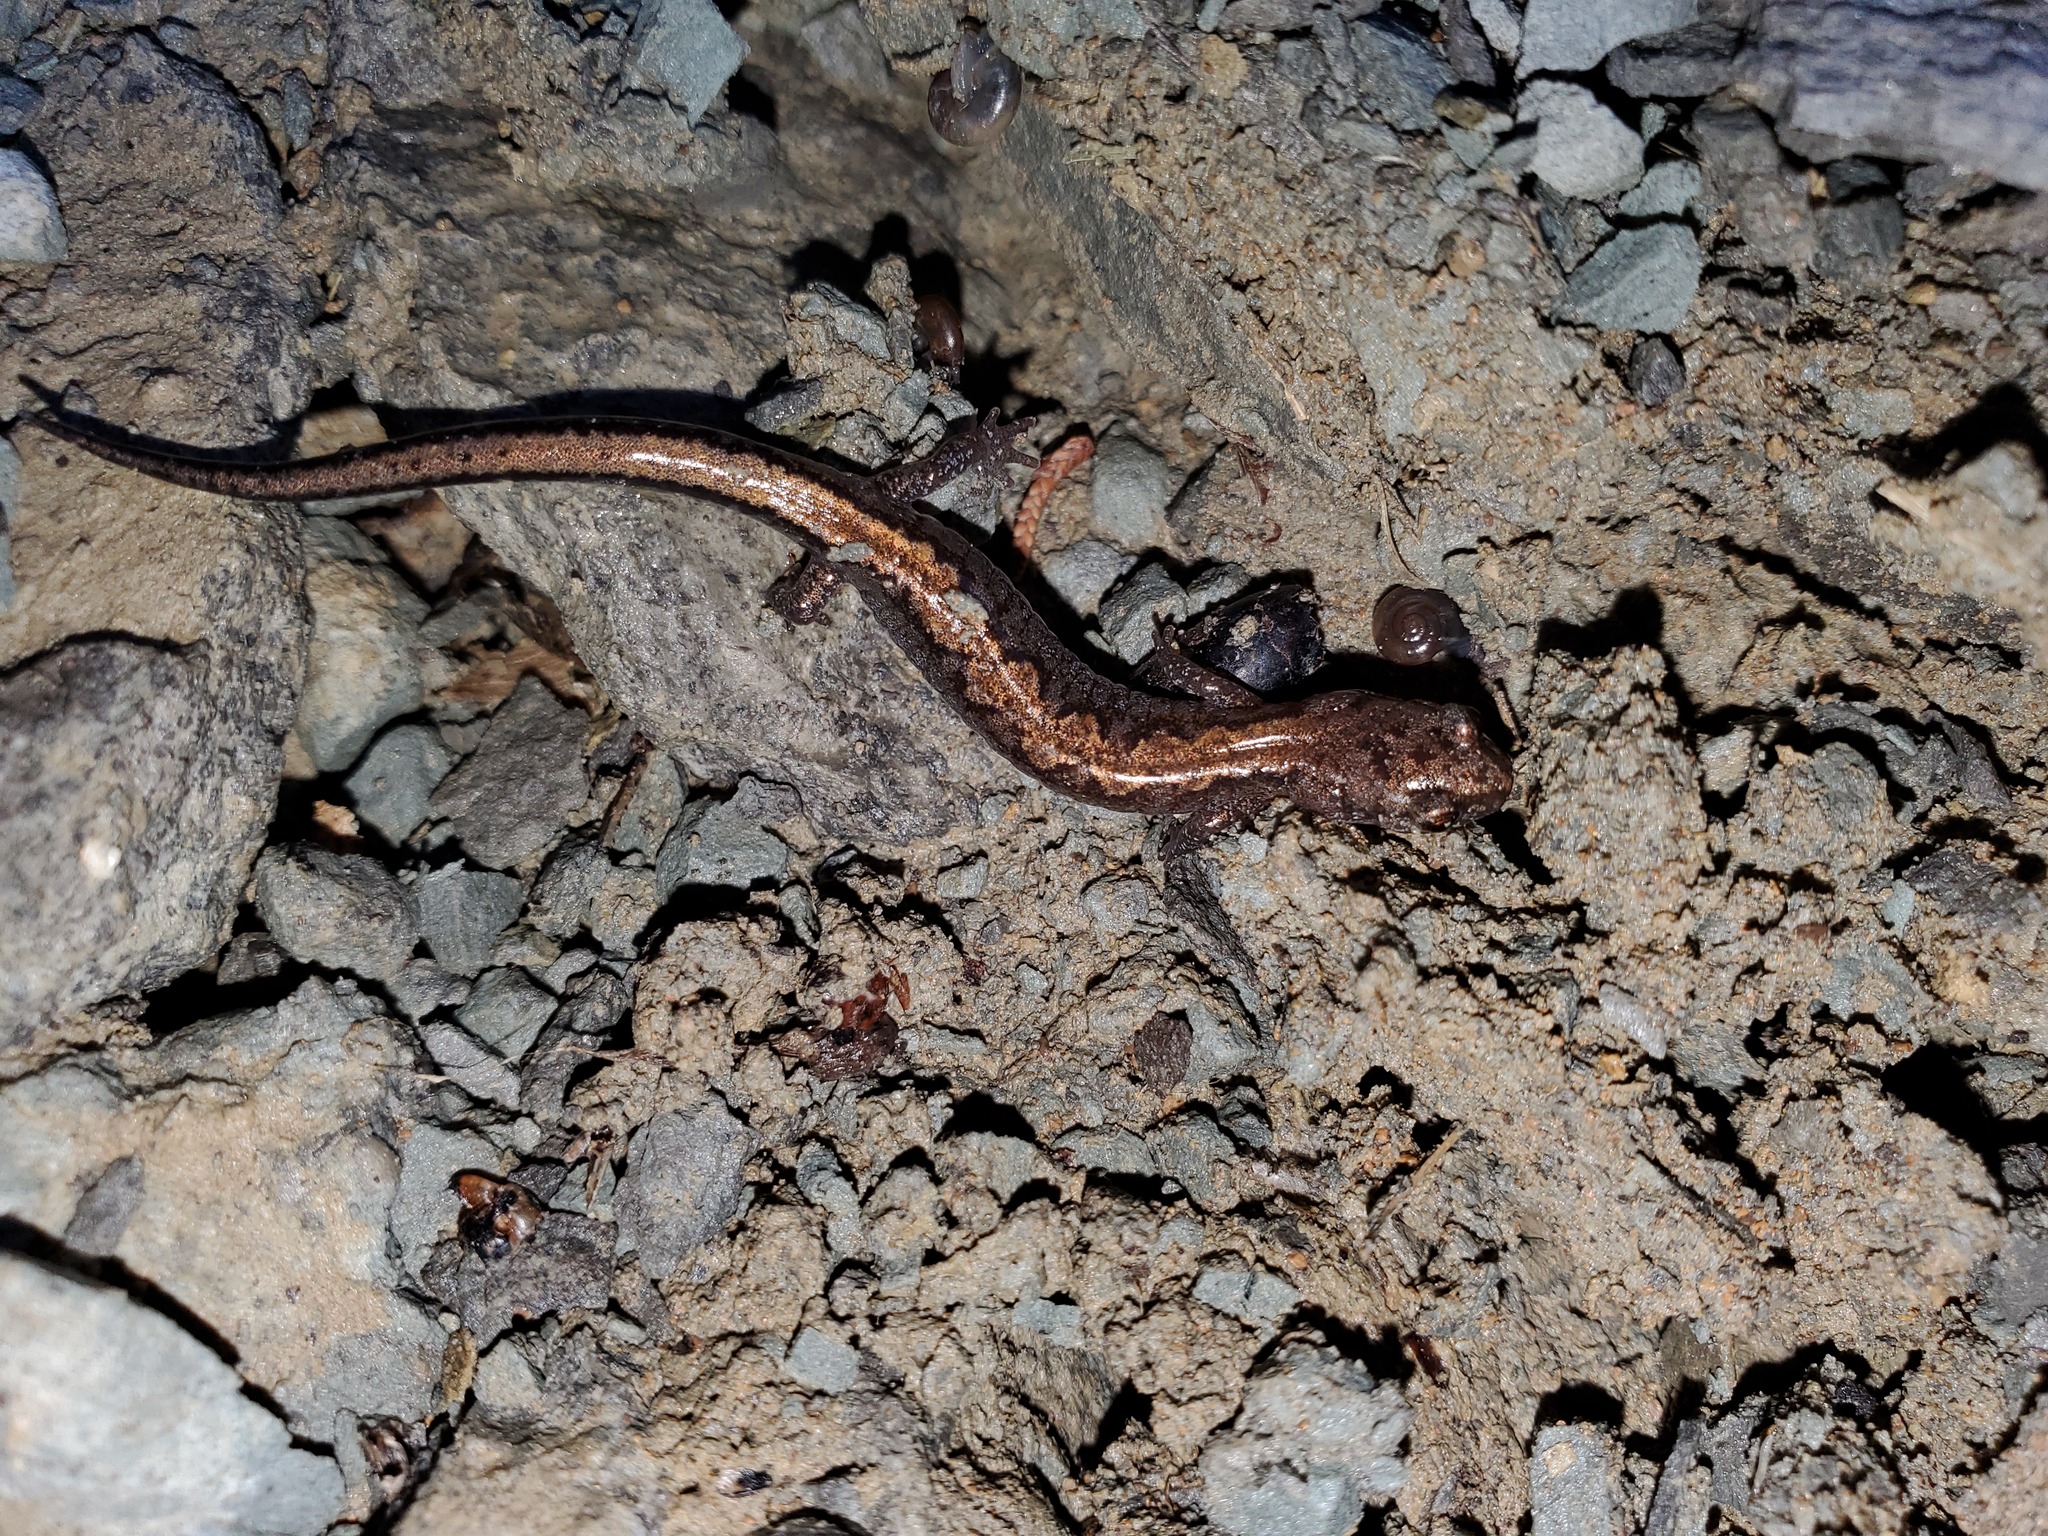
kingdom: Animalia
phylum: Chordata
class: Amphibia
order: Caudata
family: Plethodontidae
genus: Plethodon
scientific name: Plethodon dorsalis
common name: Northern zigzag salamander
